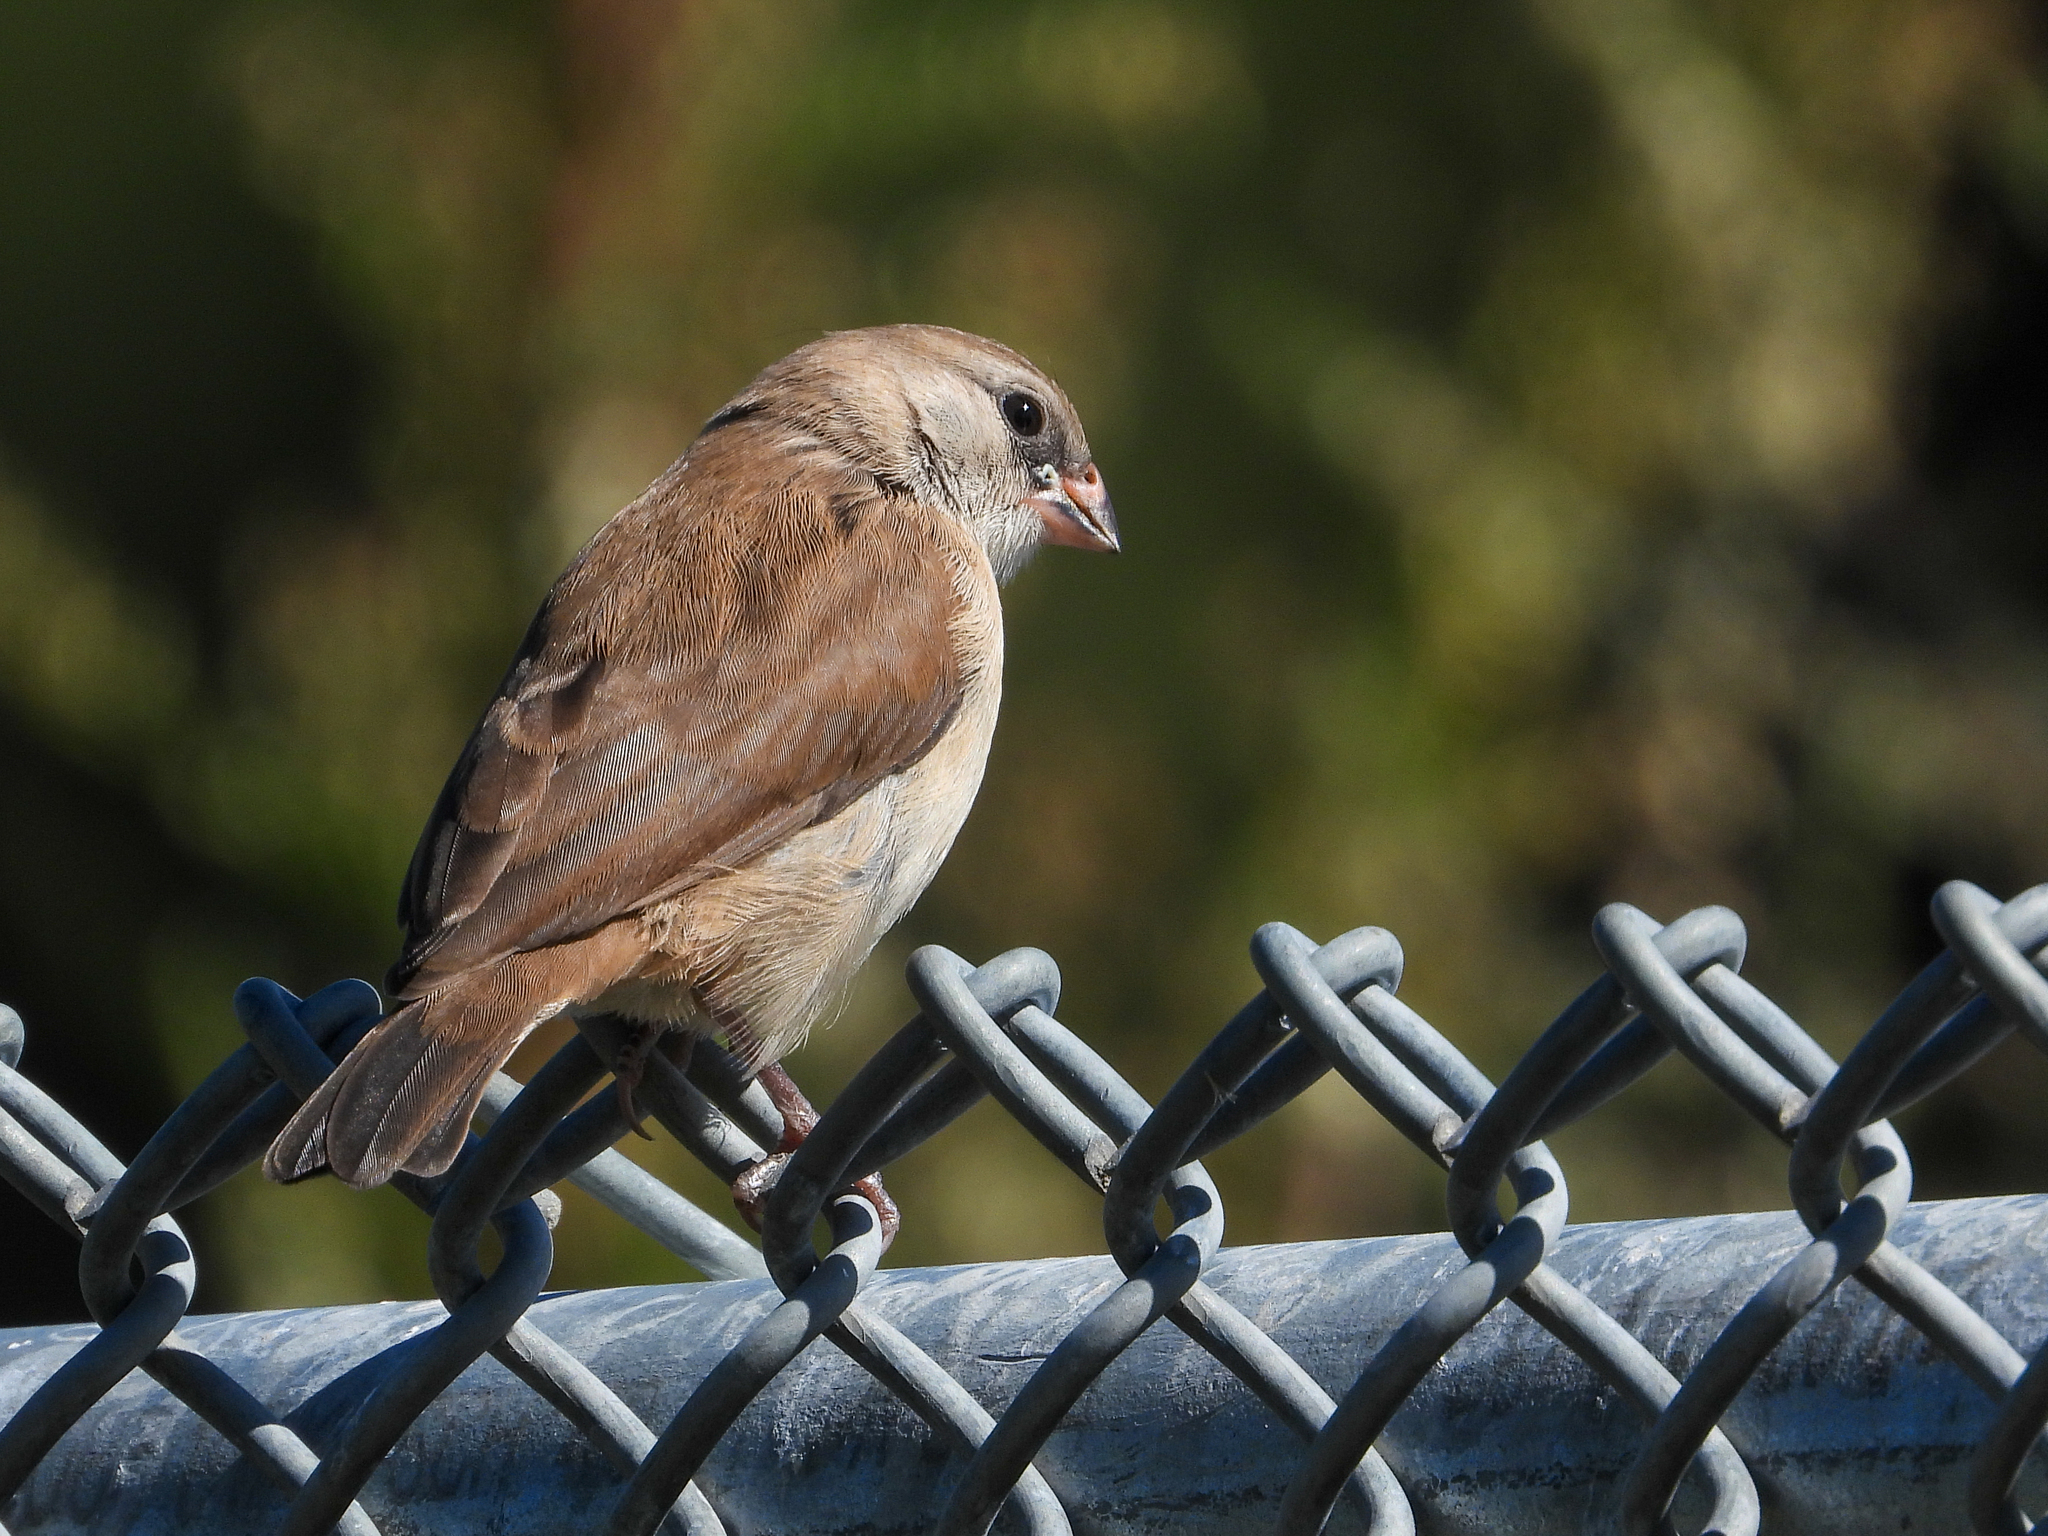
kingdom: Animalia
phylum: Chordata
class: Aves
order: Passeriformes
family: Viduidae
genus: Vidua
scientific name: Vidua macroura
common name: Pin-tailed whydah
